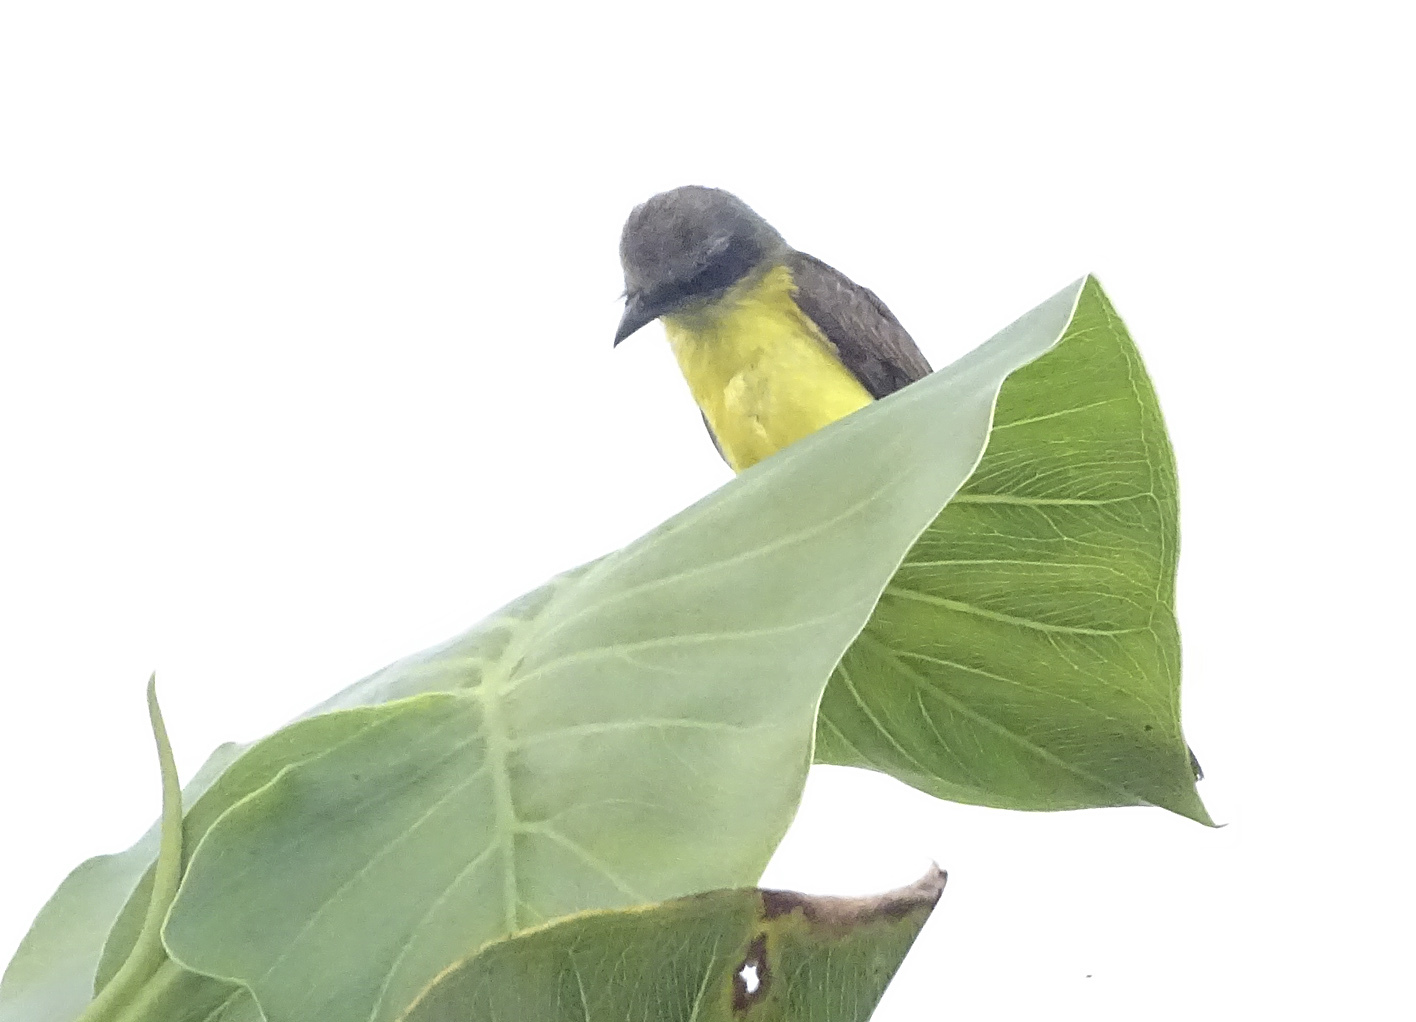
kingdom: Animalia
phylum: Chordata
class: Aves
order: Passeriformes
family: Tyrannidae
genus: Myiozetetes
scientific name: Myiozetetes granadensis
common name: Gray-capped flycatcher
